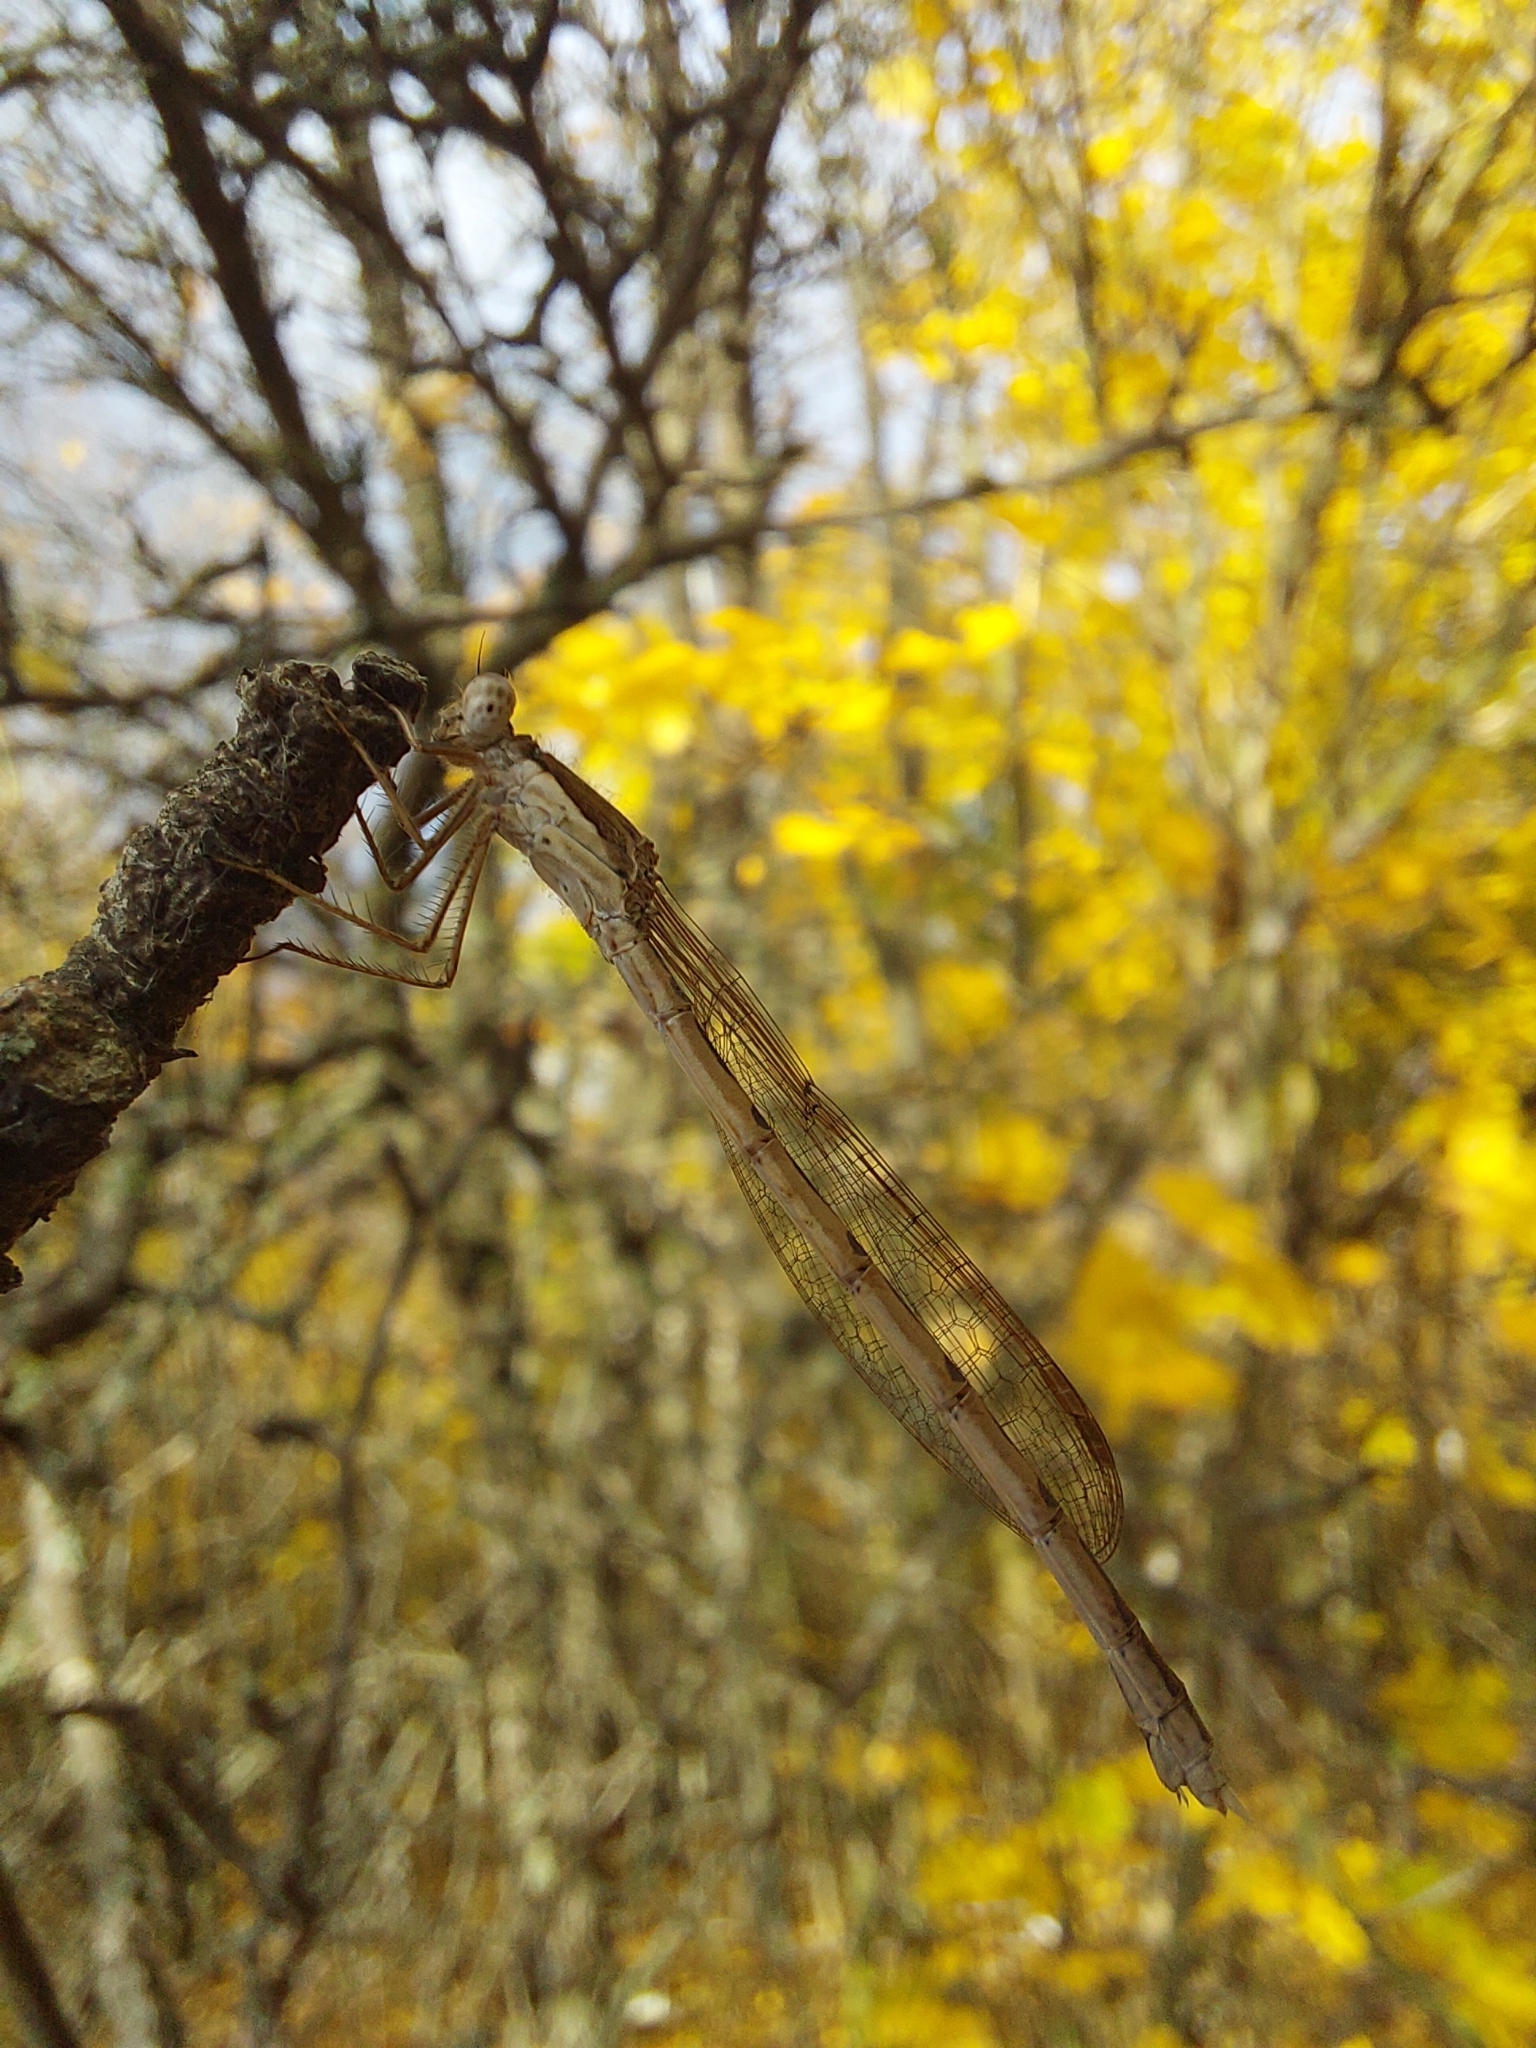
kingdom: Animalia
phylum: Arthropoda
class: Insecta
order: Odonata
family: Lestidae
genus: Sympecma
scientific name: Sympecma fusca
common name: Common winter damsel
